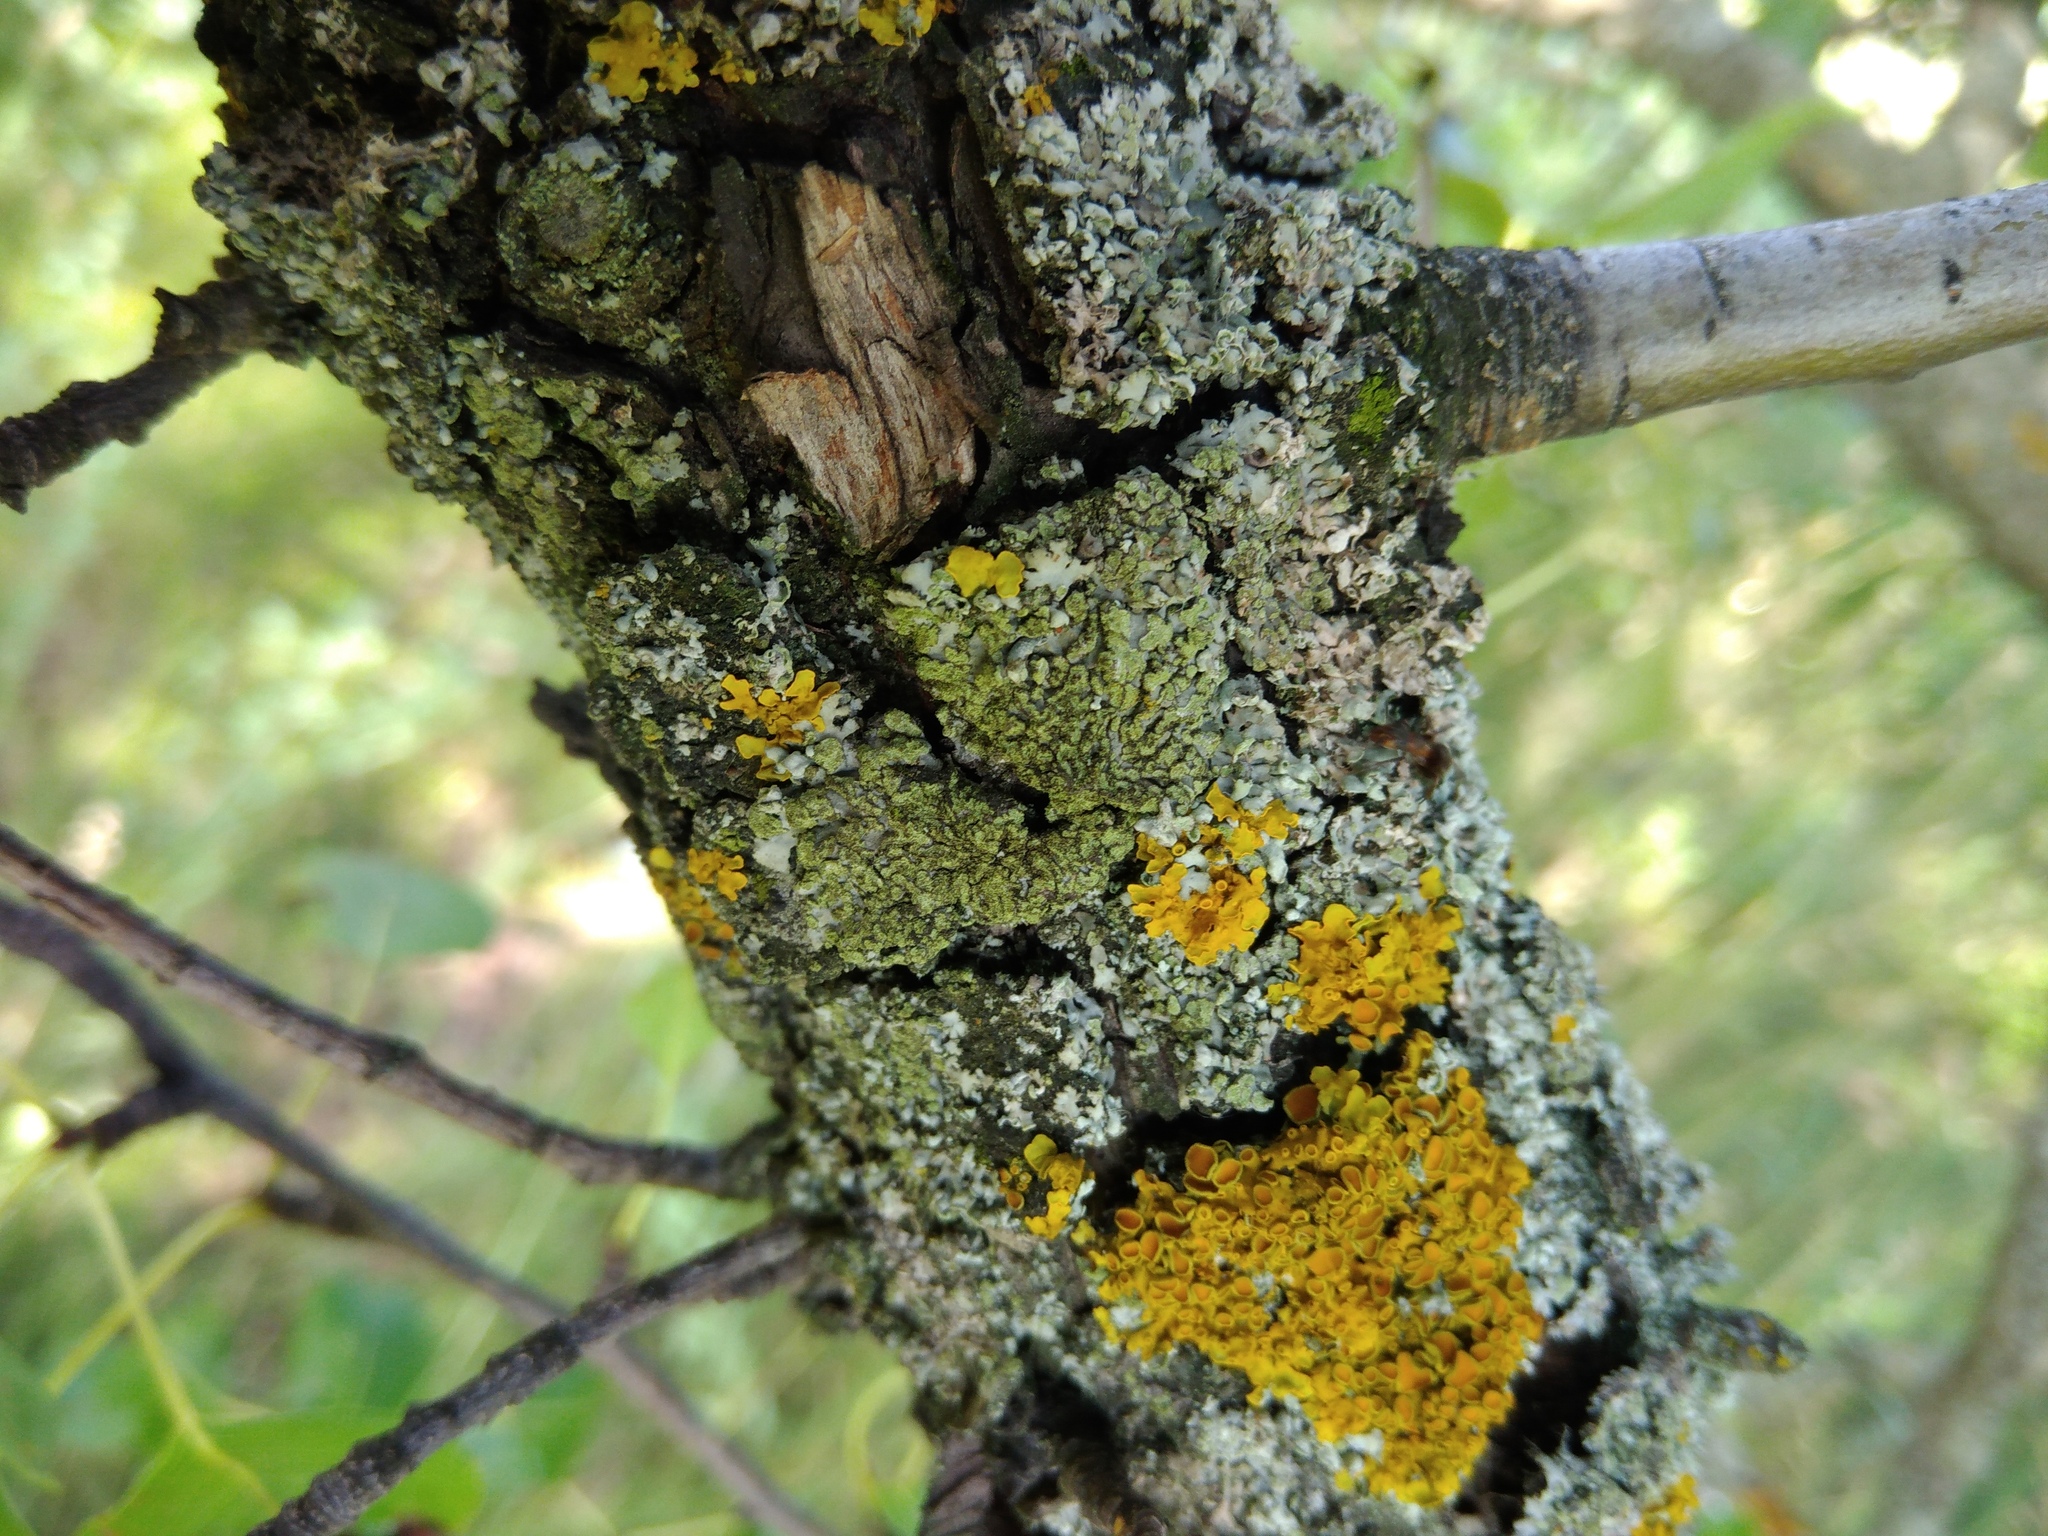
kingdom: Fungi
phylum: Ascomycota
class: Lecanoromycetes
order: Caliciales
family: Physciaceae
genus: Phaeophyscia
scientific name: Phaeophyscia orbicularis
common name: Mealy shadow lichen
